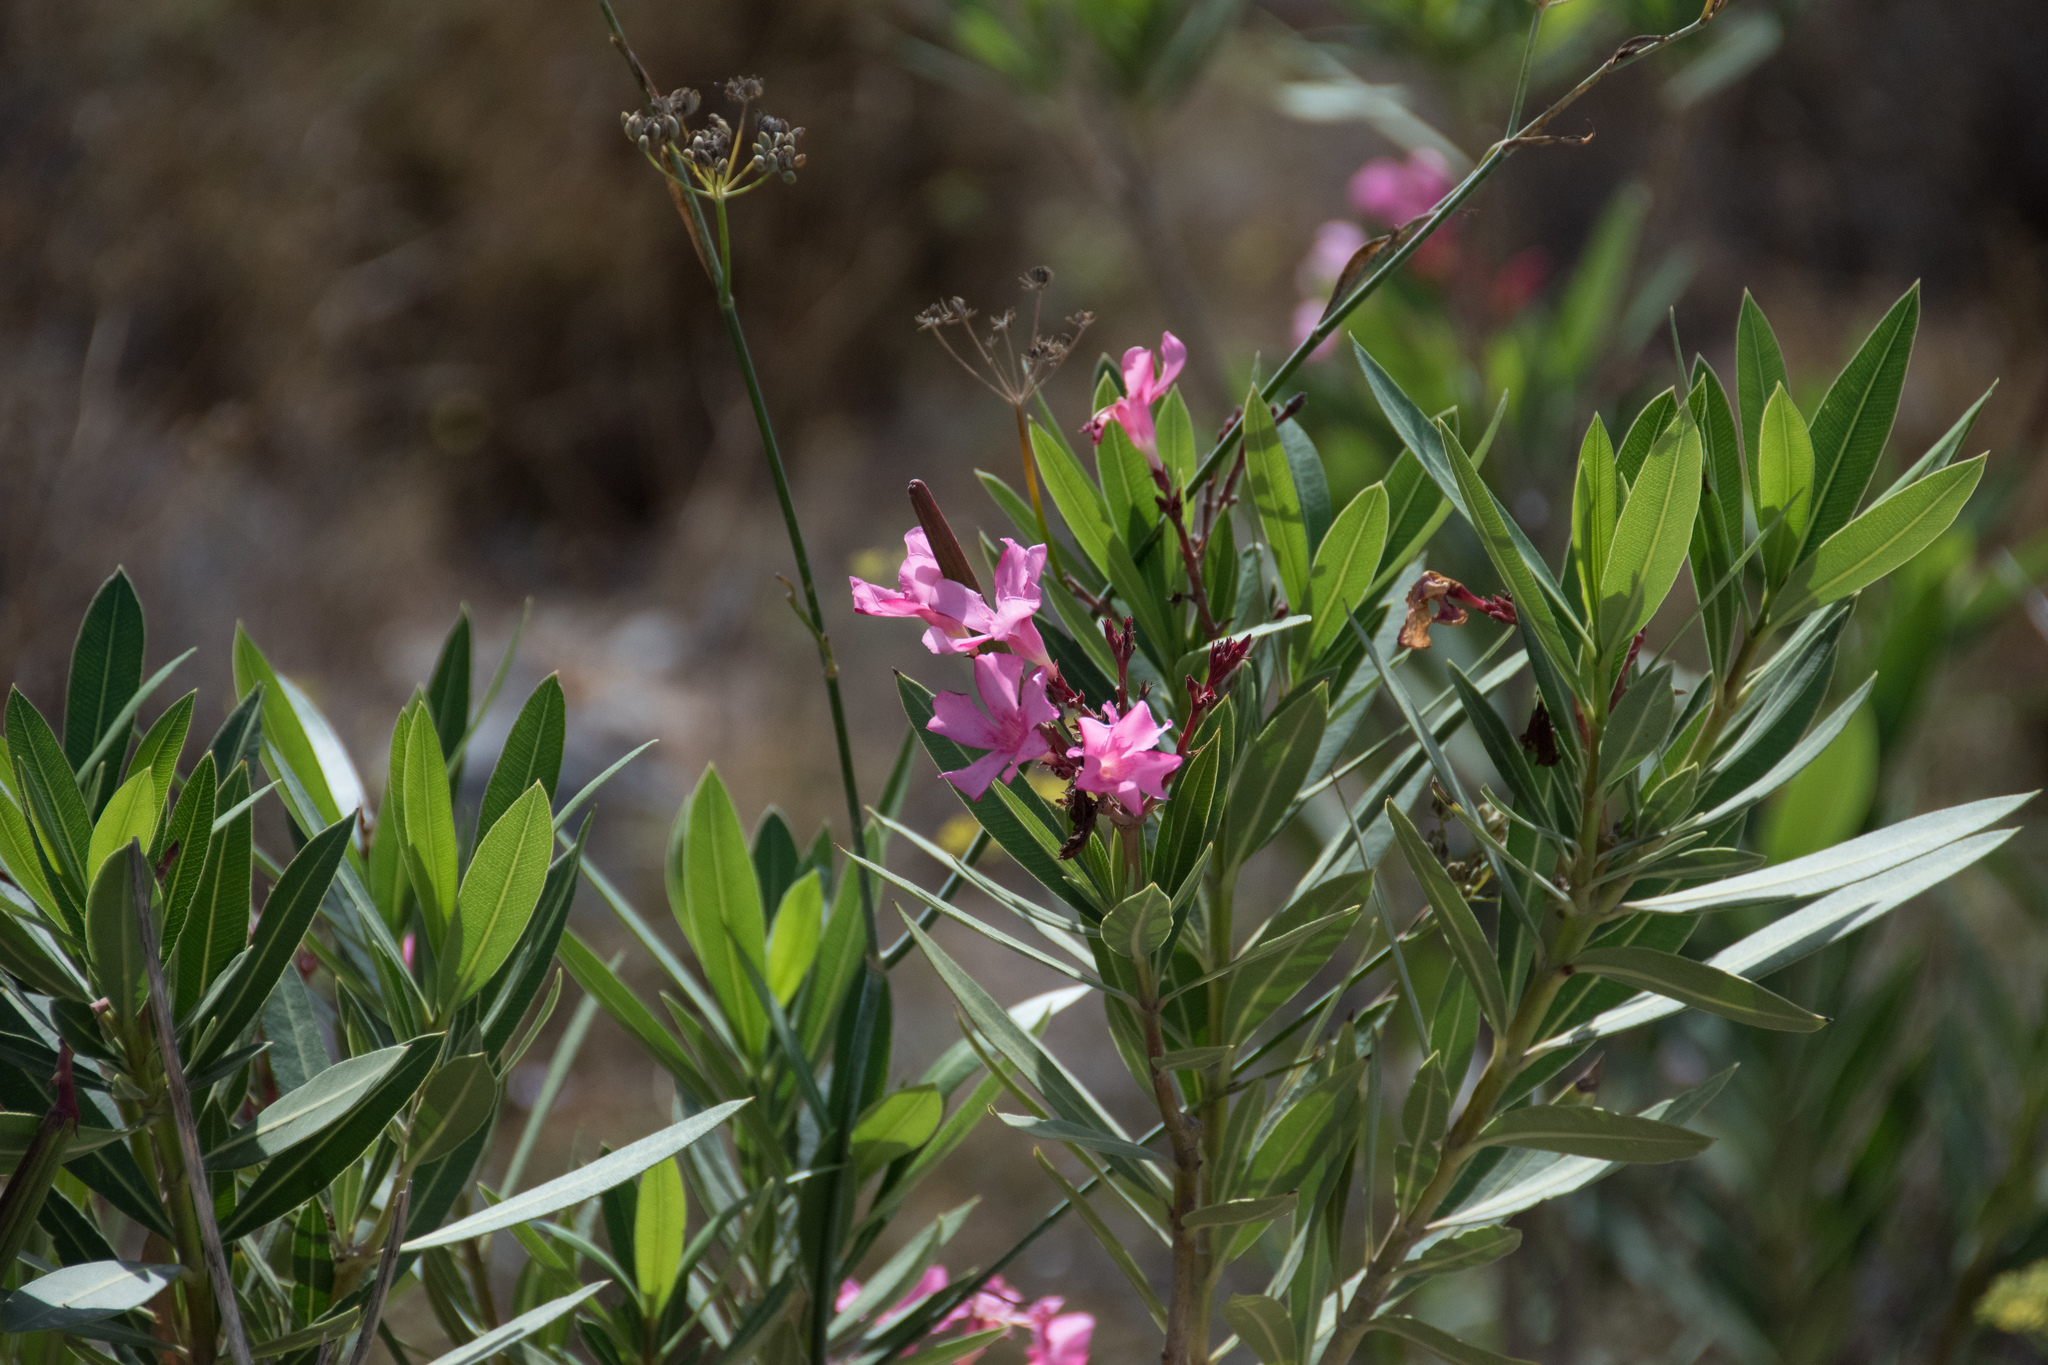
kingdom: Plantae
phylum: Tracheophyta
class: Magnoliopsida
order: Gentianales
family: Apocynaceae
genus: Nerium
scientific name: Nerium oleander
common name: Oleander
